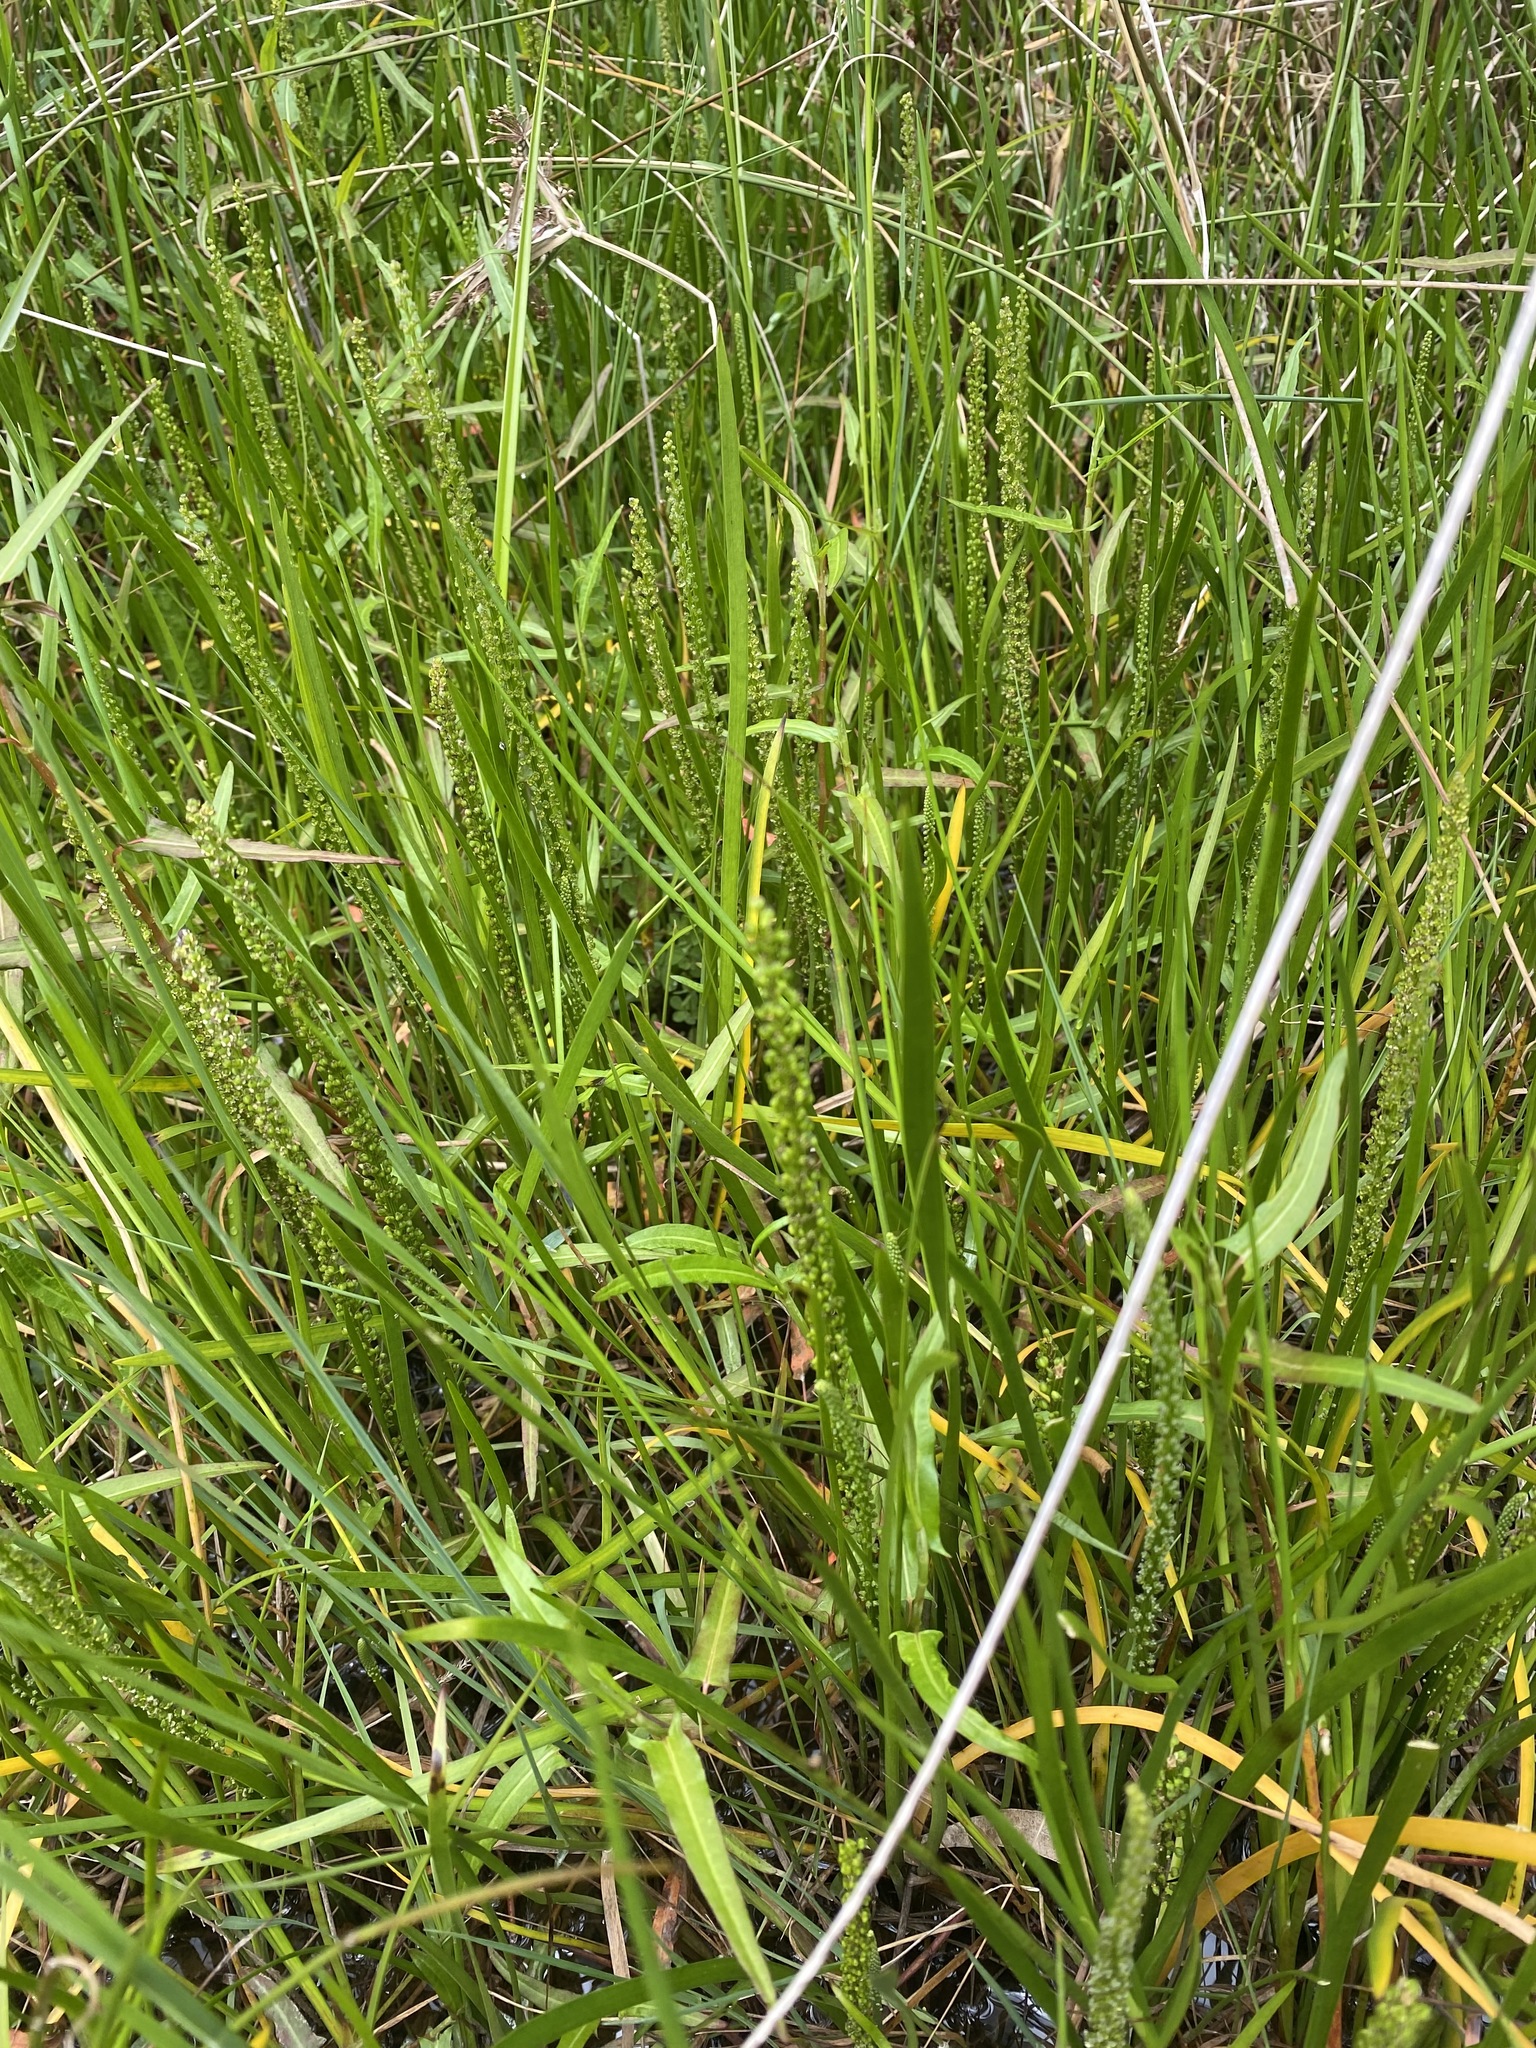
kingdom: Plantae
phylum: Tracheophyta
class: Liliopsida
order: Alismatales
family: Juncaginaceae
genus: Triglochin
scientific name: Triglochin striata
